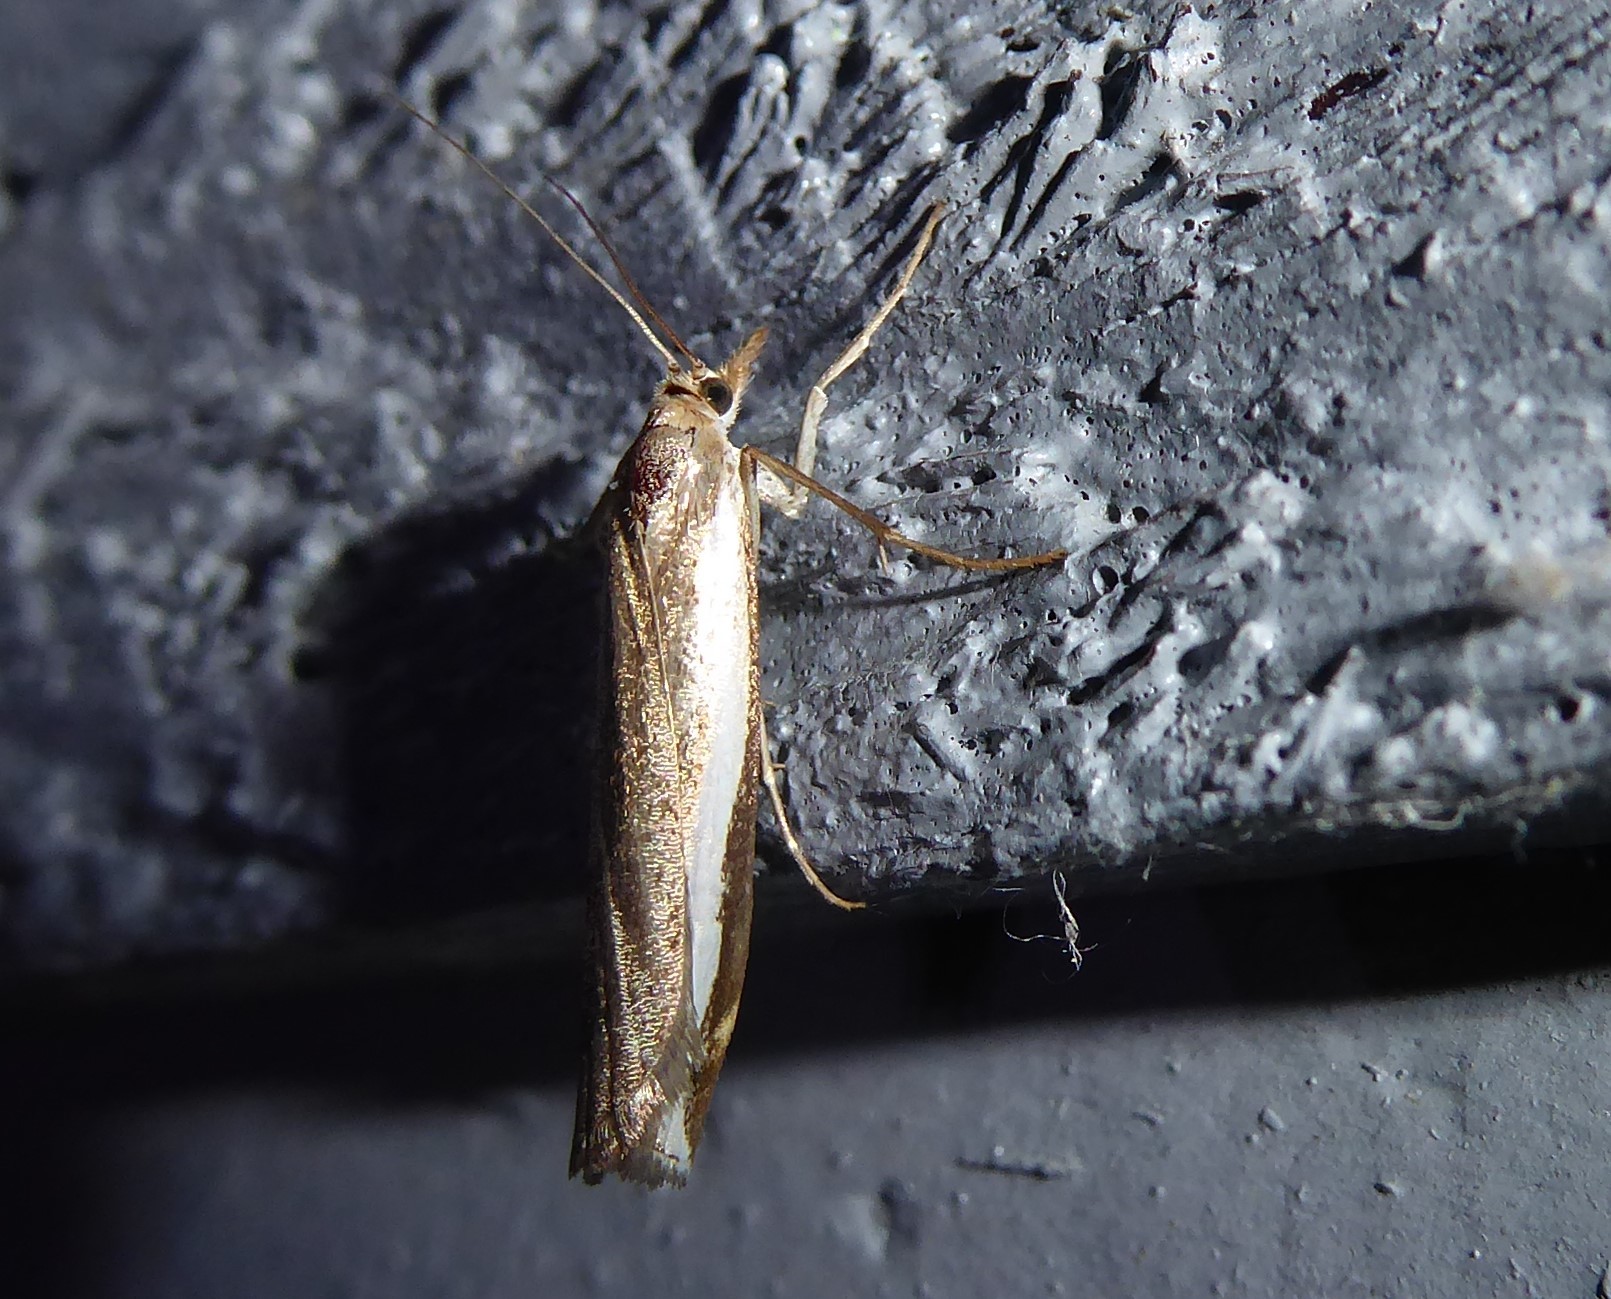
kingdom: Animalia
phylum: Arthropoda
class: Insecta
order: Lepidoptera
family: Crambidae
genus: Orocrambus
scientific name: Orocrambus flexuosellus
